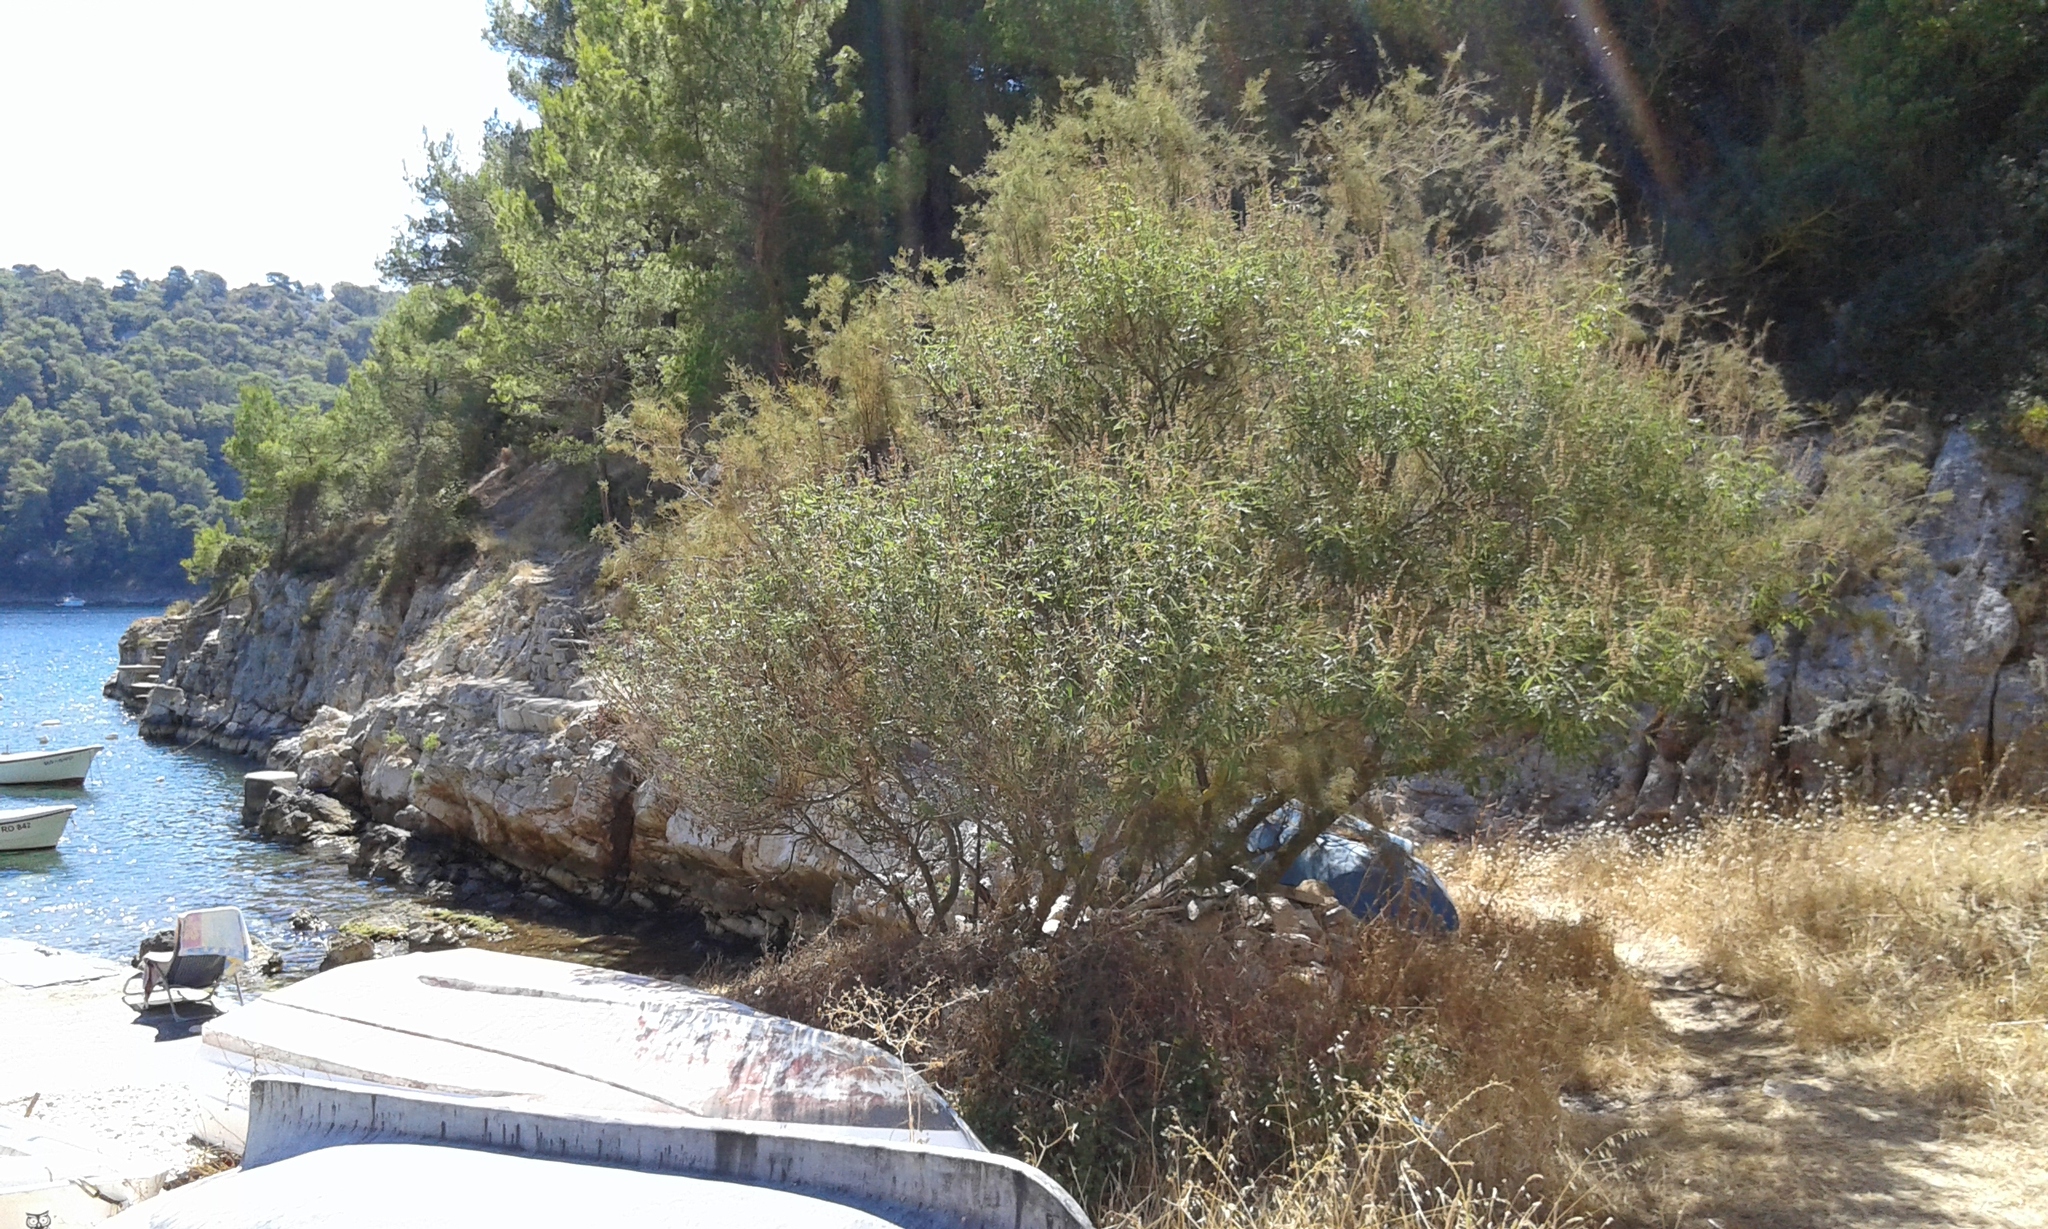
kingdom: Plantae
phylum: Tracheophyta
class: Magnoliopsida
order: Lamiales
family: Lamiaceae
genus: Vitex
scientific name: Vitex agnus-castus
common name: Chasteberry
